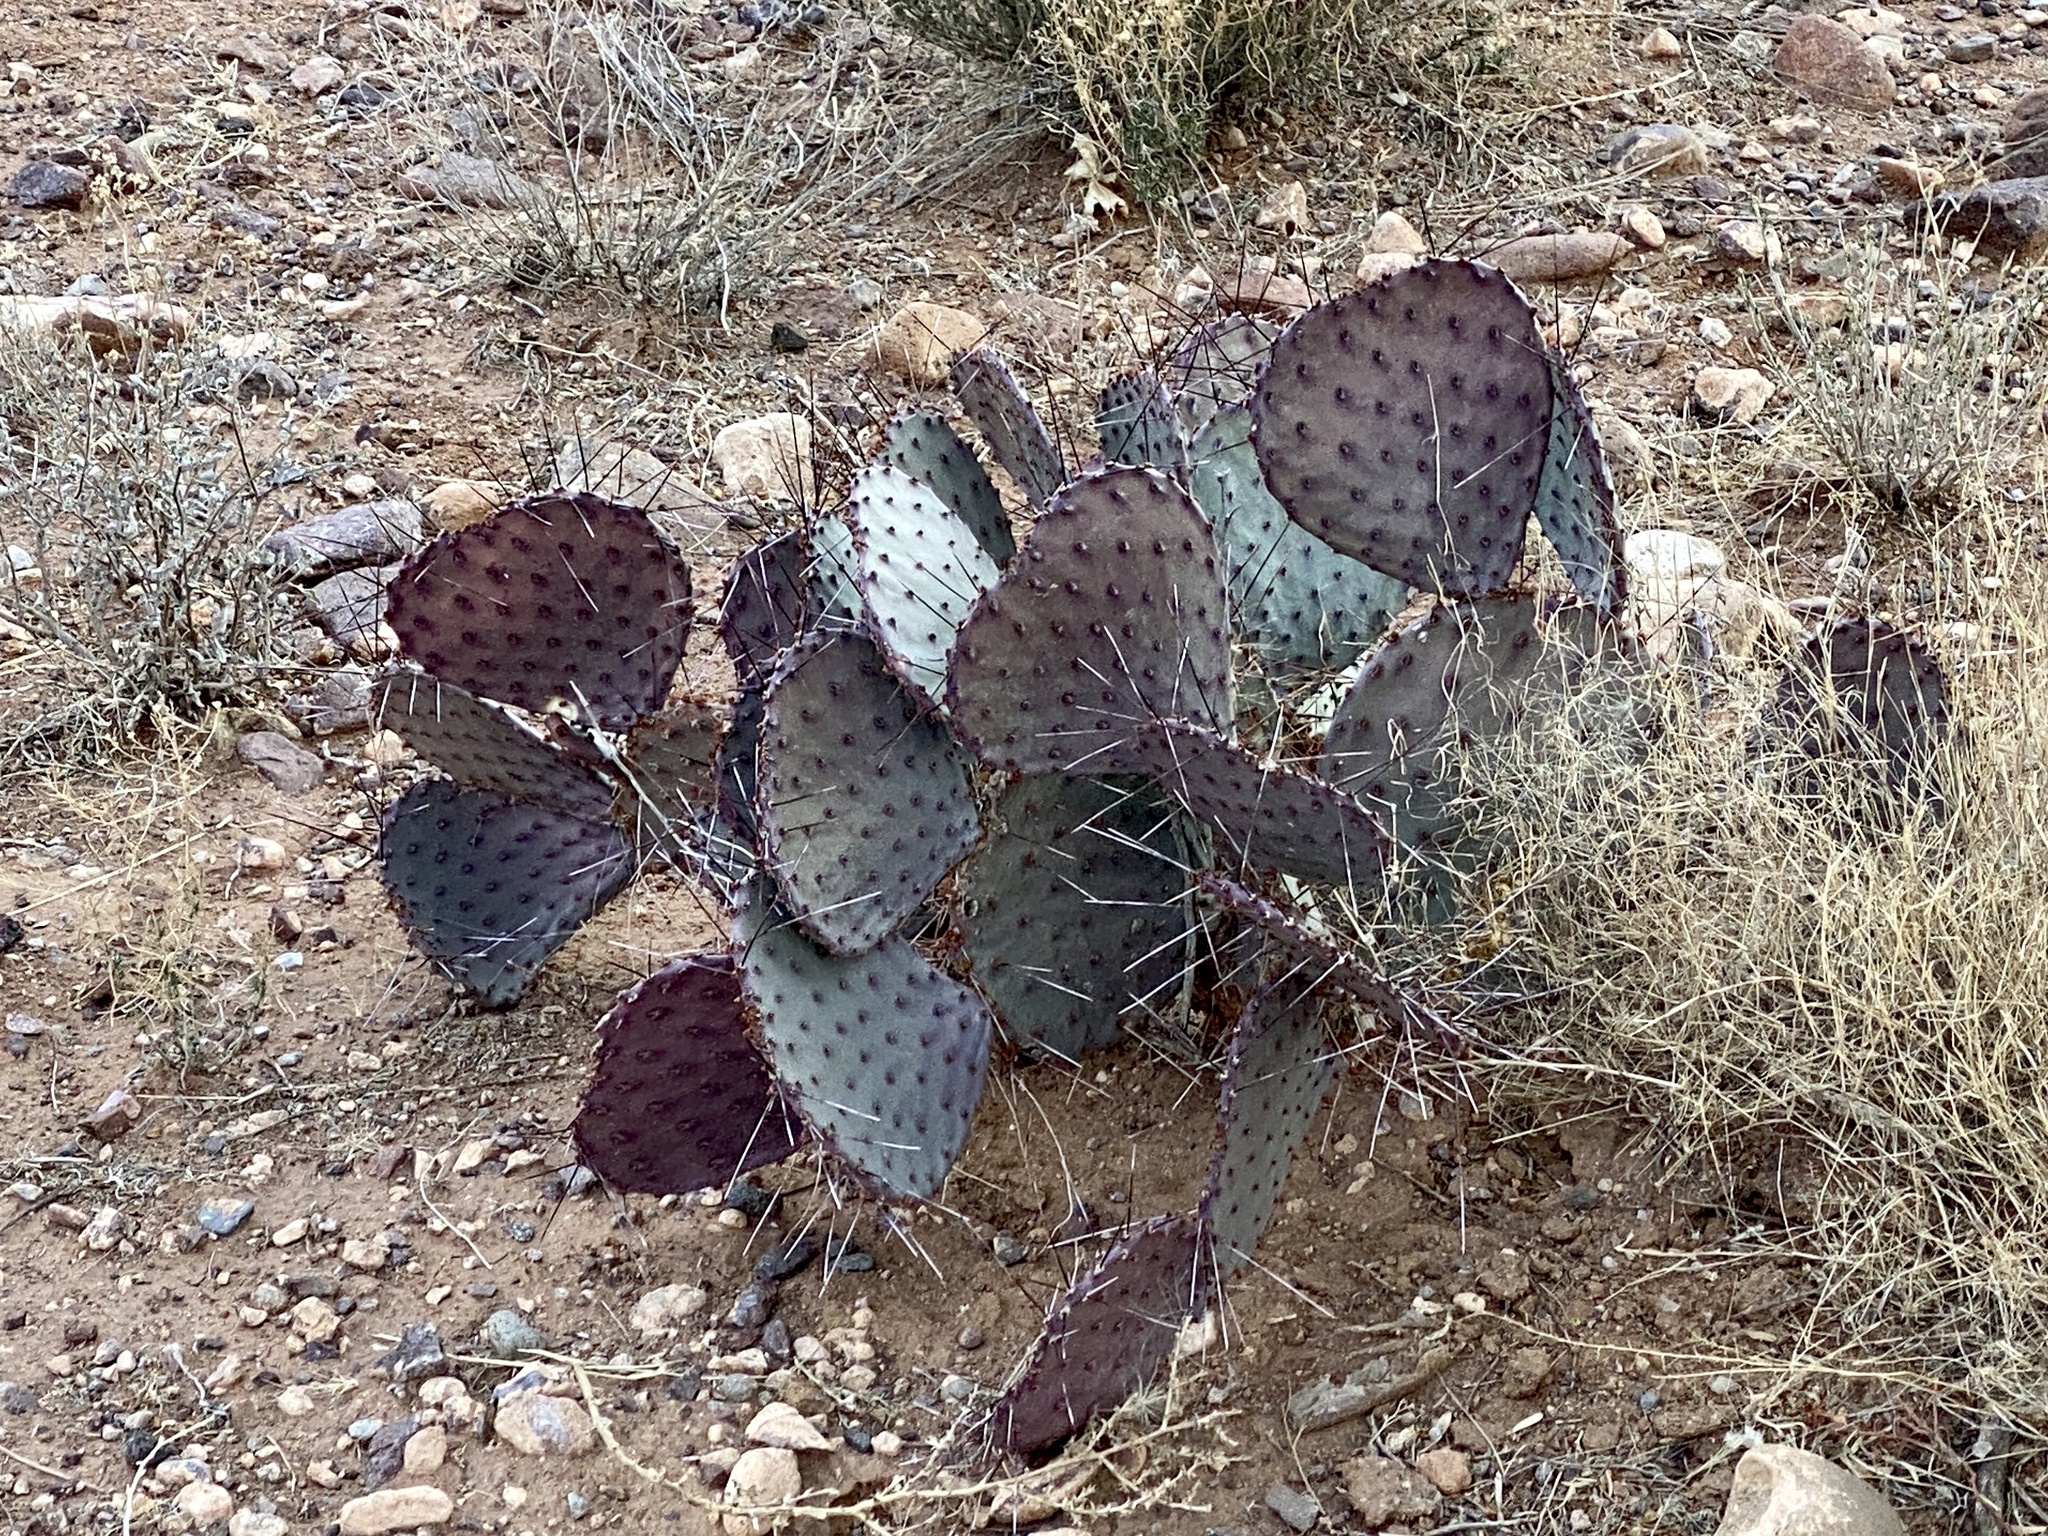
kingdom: Plantae
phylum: Tracheophyta
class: Magnoliopsida
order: Caryophyllales
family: Cactaceae
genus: Opuntia
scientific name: Opuntia macrocentra
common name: Purple prickly-pear
